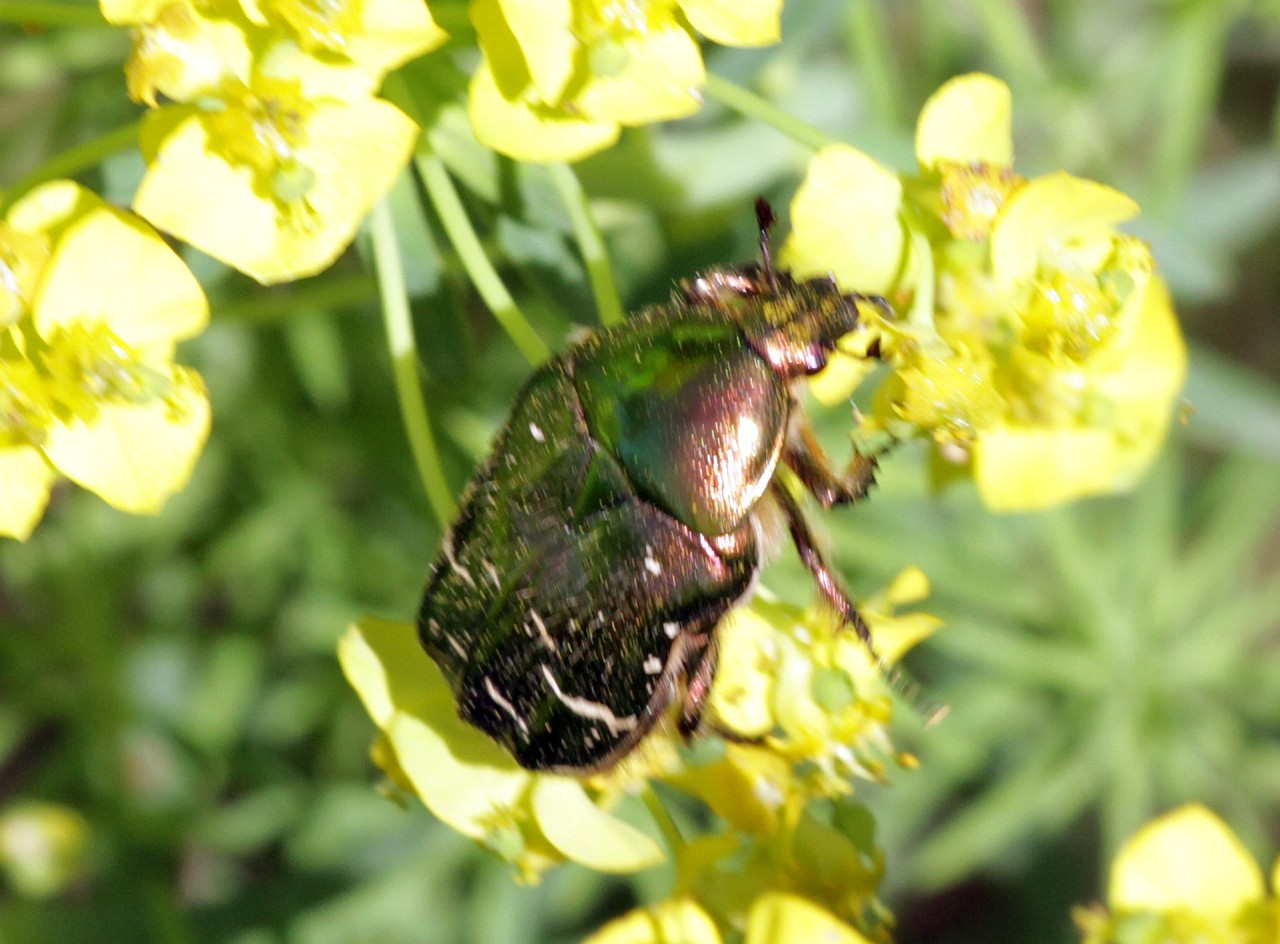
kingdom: Animalia
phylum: Arthropoda
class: Insecta
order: Coleoptera
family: Scarabaeidae
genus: Cetonia
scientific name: Cetonia aurata
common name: Rose chafer
